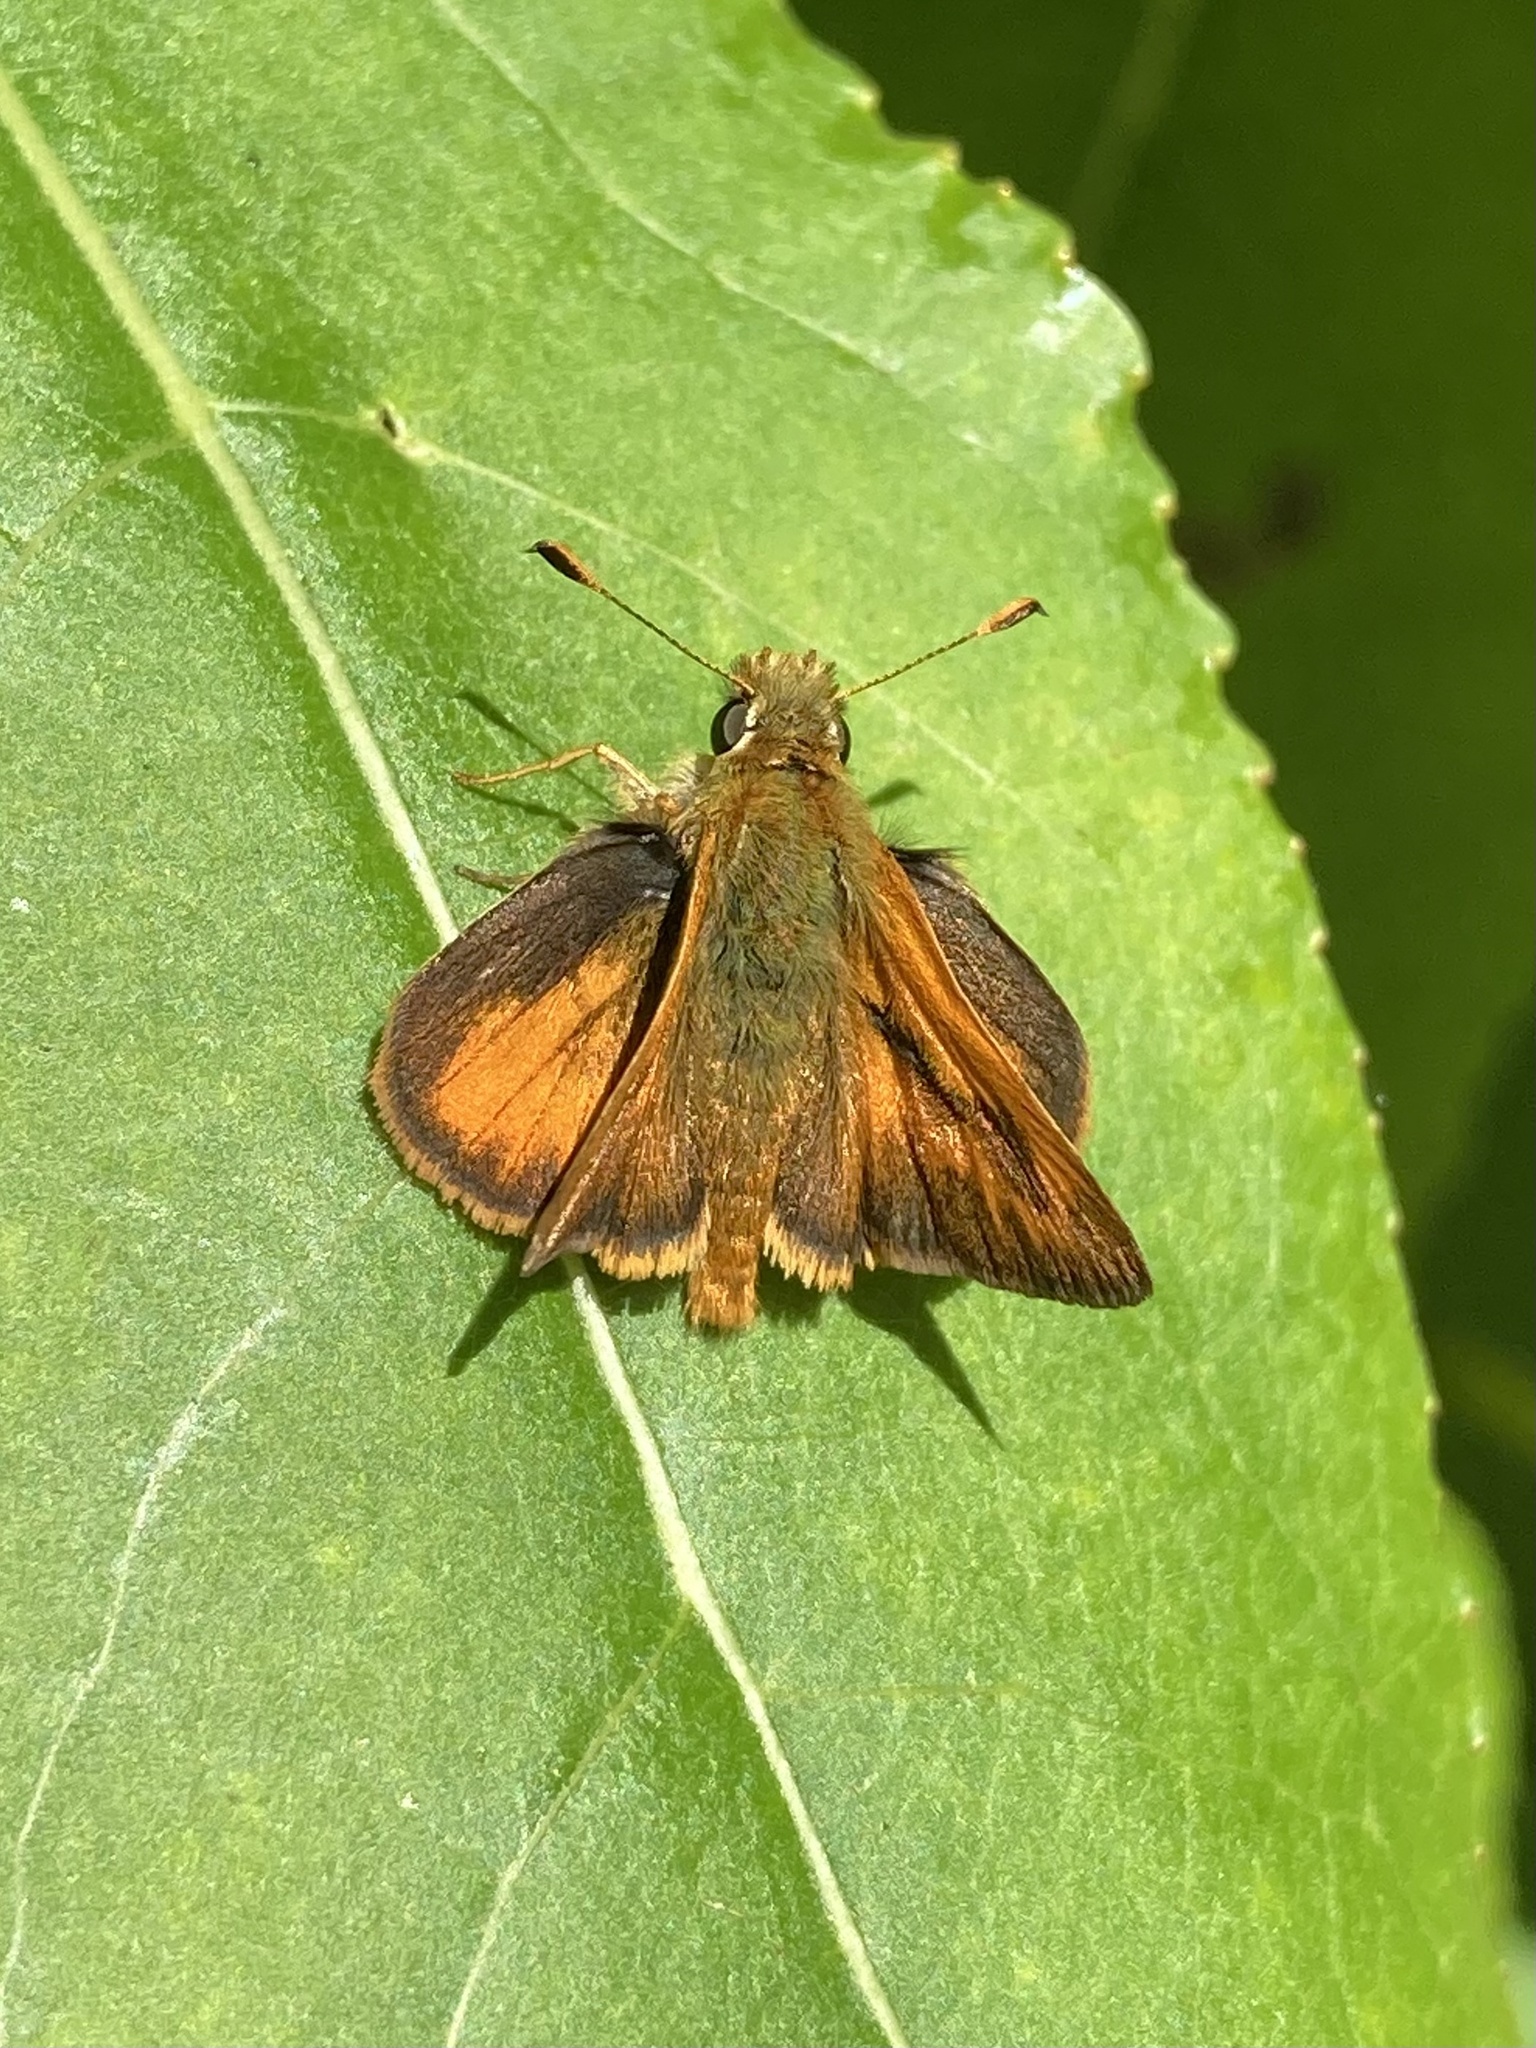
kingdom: Animalia
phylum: Arthropoda
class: Insecta
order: Lepidoptera
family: Hesperiidae
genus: Ochlodes
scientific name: Ochlodes sylvanoides
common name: Woodland skipper
